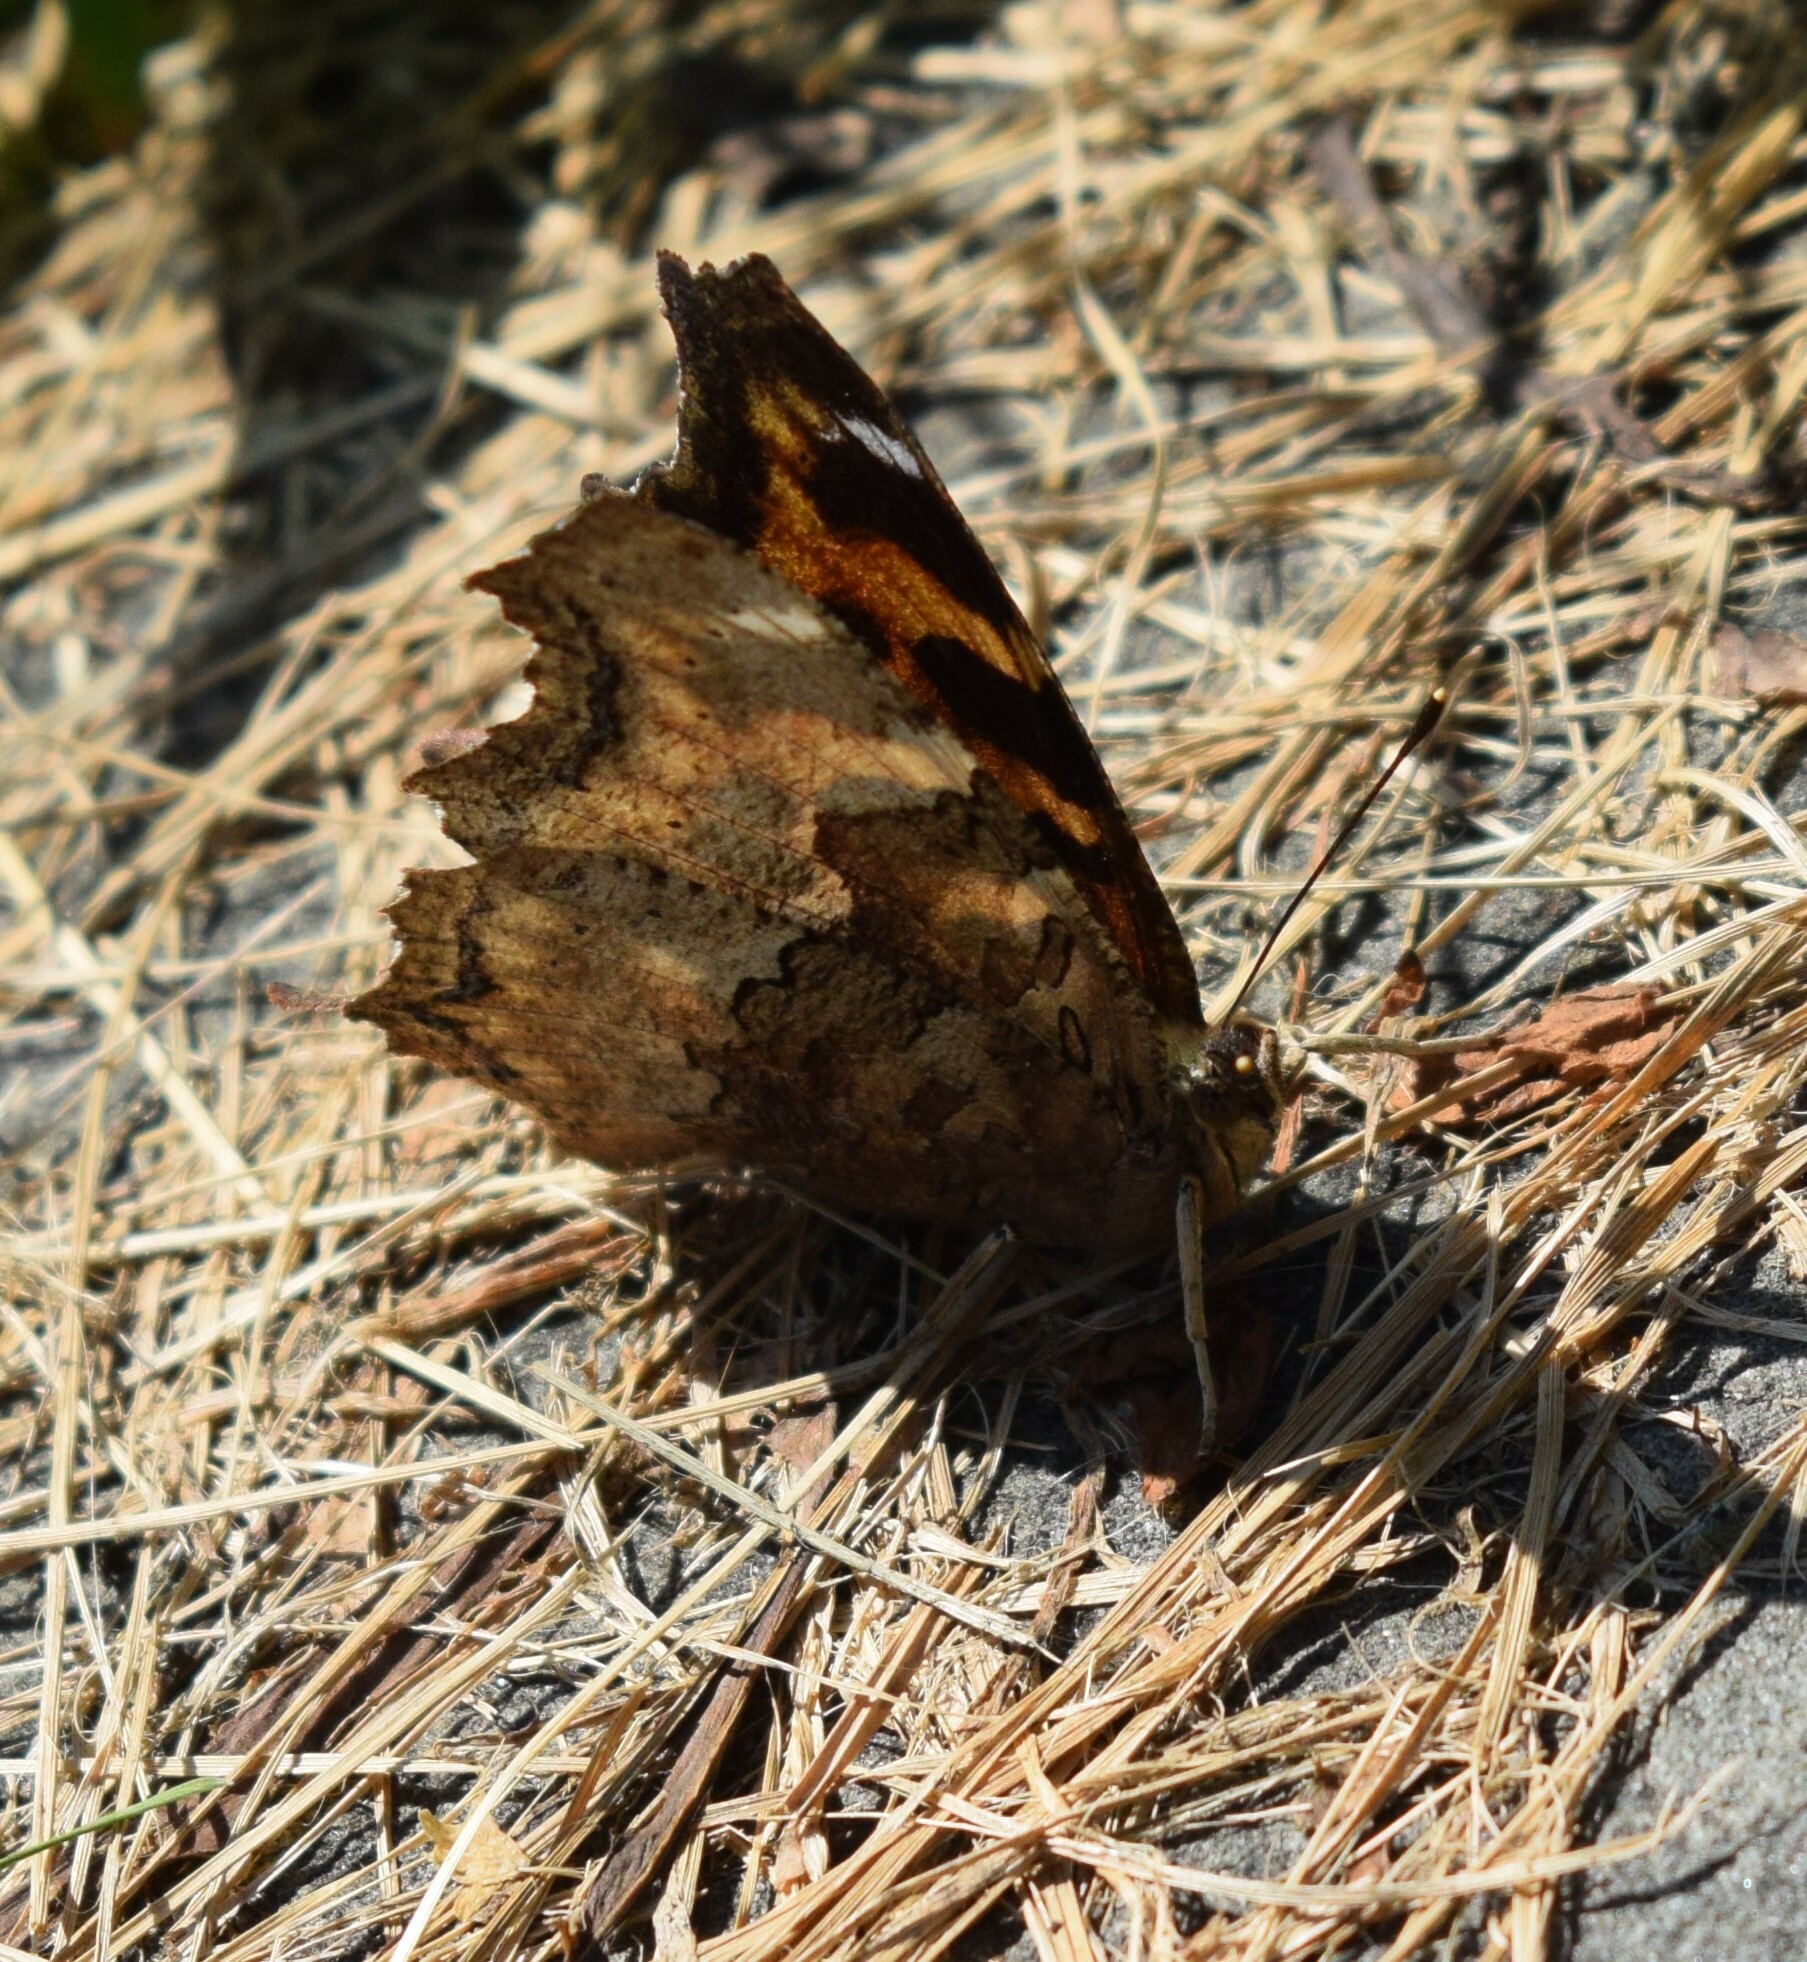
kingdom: Animalia
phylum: Arthropoda
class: Insecta
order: Lepidoptera
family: Nymphalidae
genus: Polygonia
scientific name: Polygonia vaualbum
